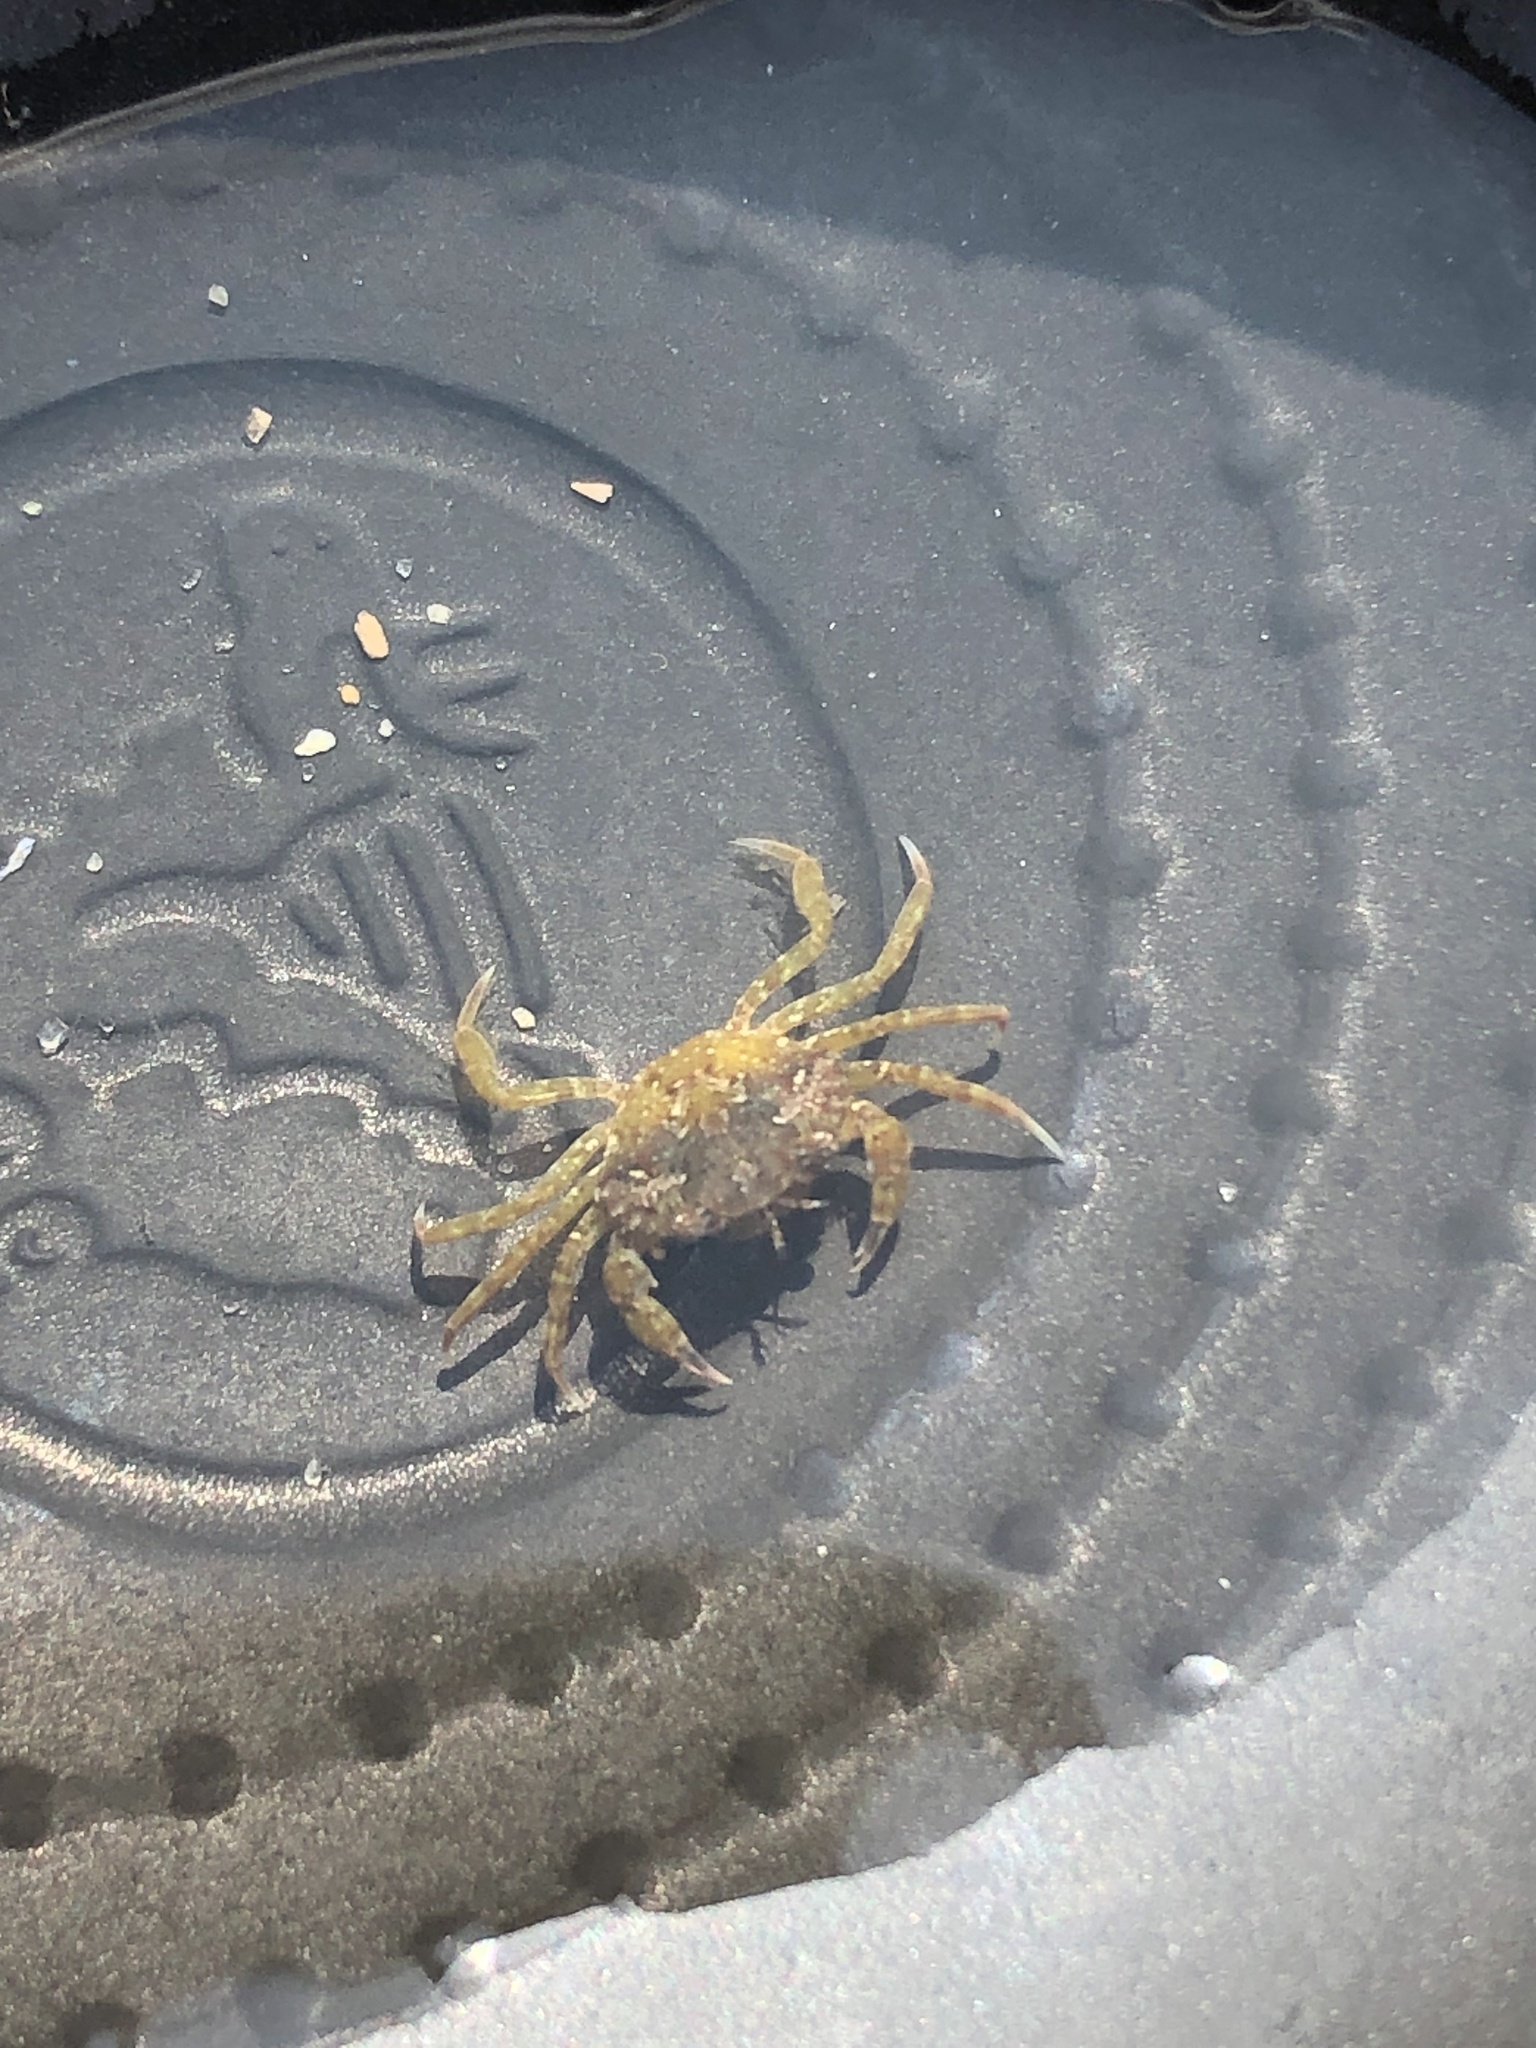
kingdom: Animalia
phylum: Arthropoda
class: Malacostraca
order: Decapoda
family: Carcinidae
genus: Carcinus
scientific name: Carcinus maenas
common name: European green crab
